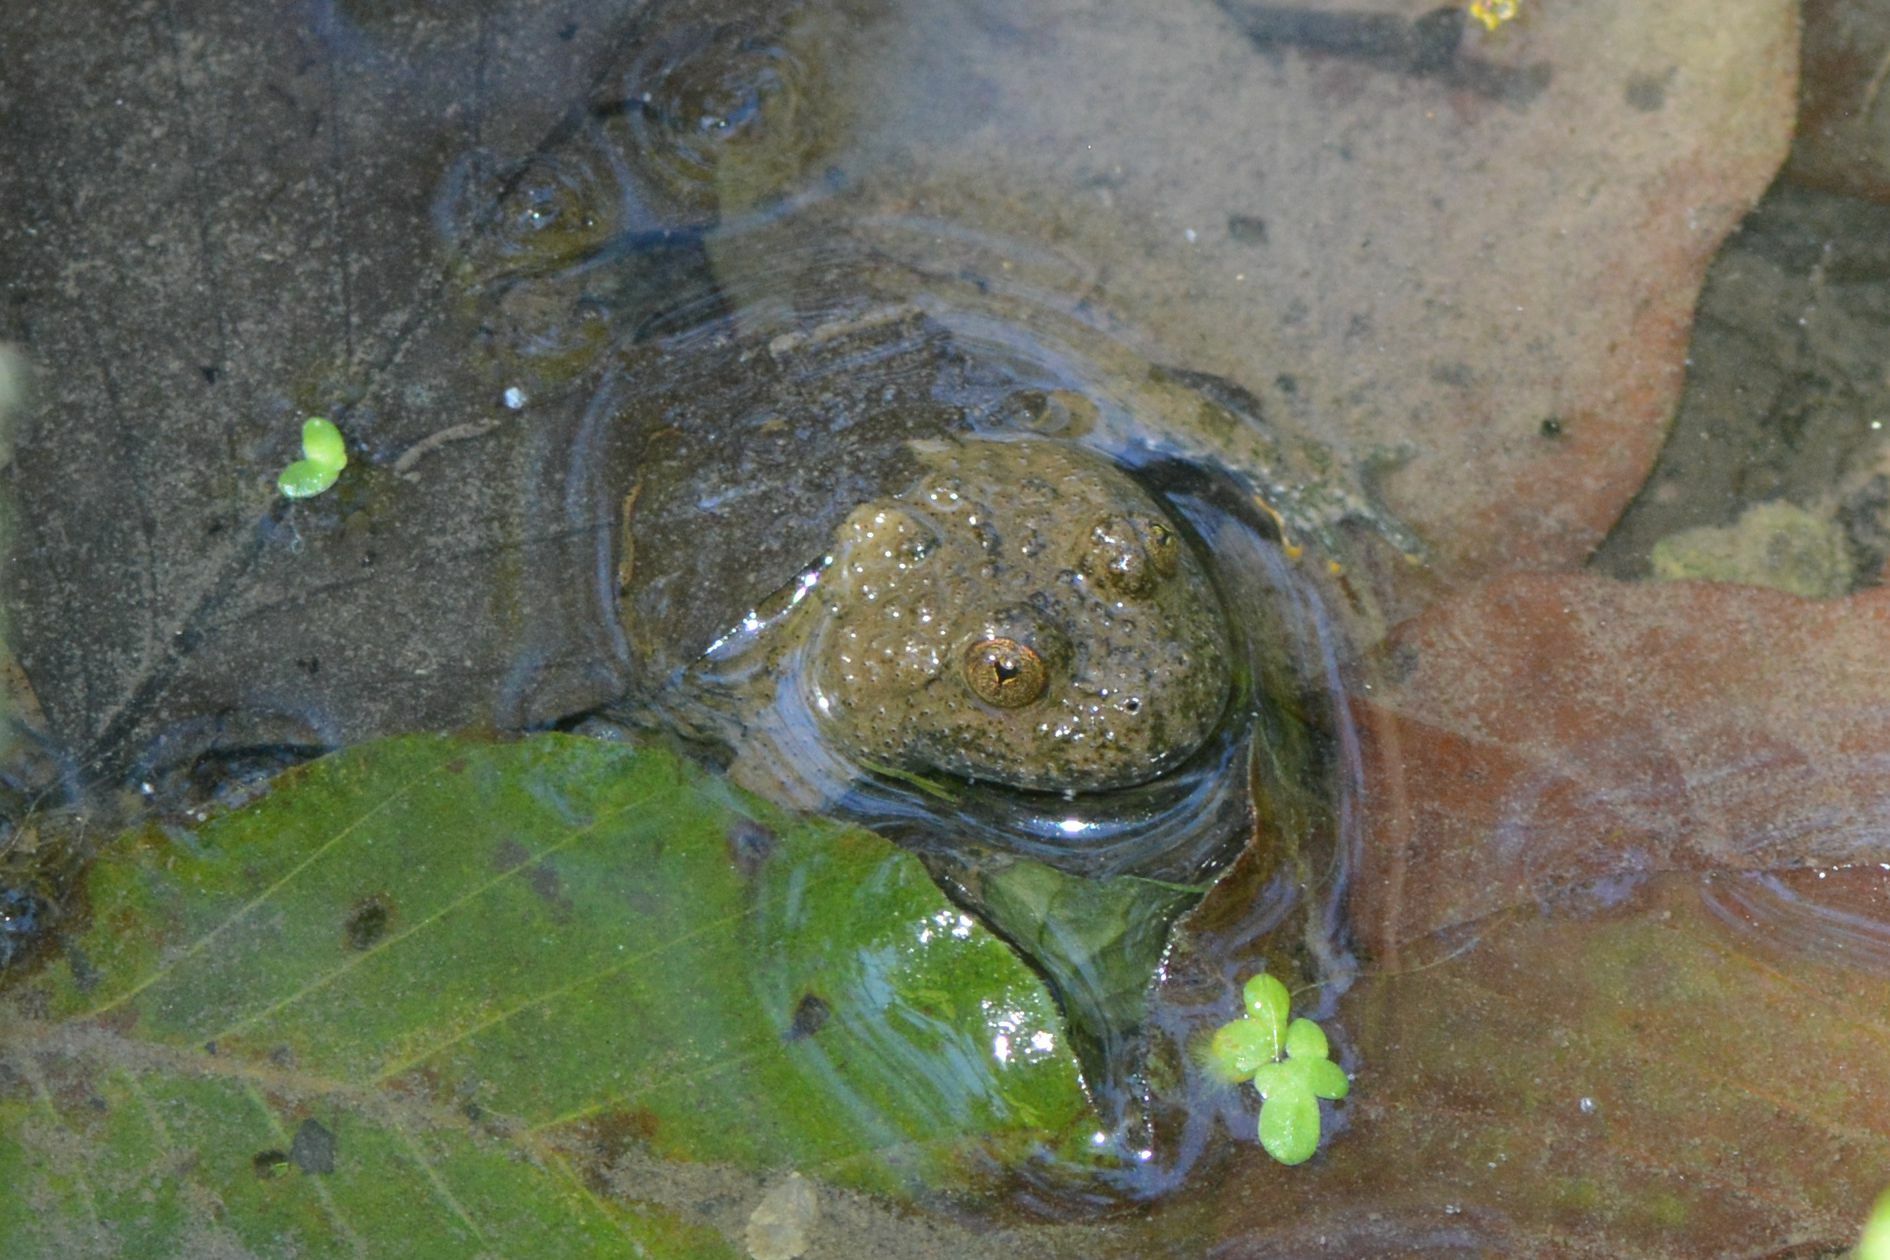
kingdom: Animalia
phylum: Chordata
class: Amphibia
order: Anura
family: Bombinatoridae
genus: Bombina
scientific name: Bombina variegata
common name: Yellow-bellied toad
